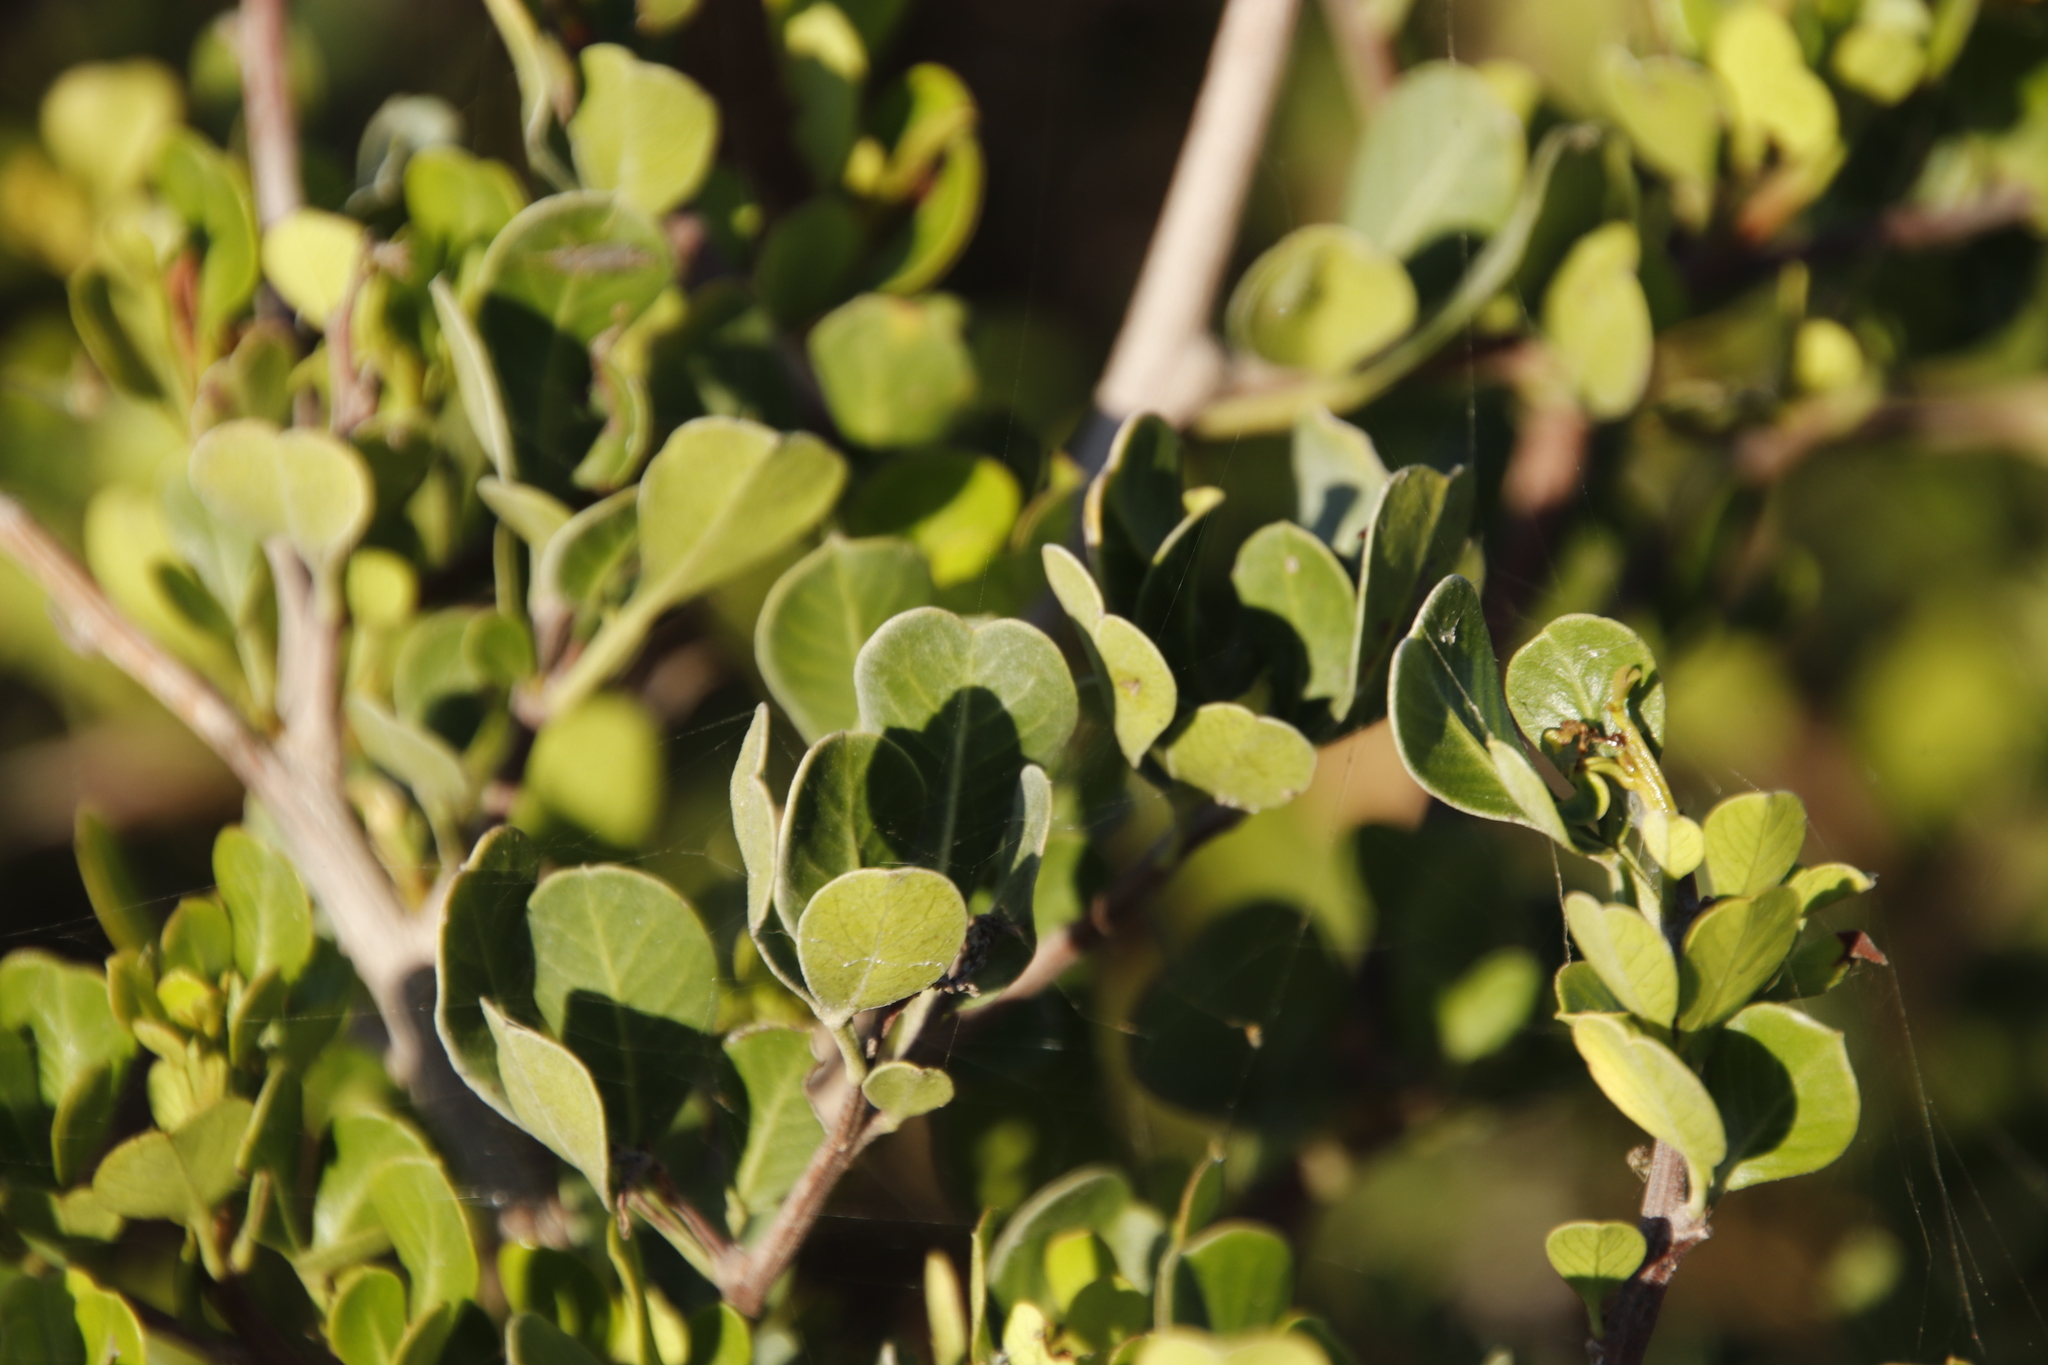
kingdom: Plantae
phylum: Tracheophyta
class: Magnoliopsida
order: Sapindales
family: Anacardiaceae
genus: Searsia
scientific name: Searsia glauca
